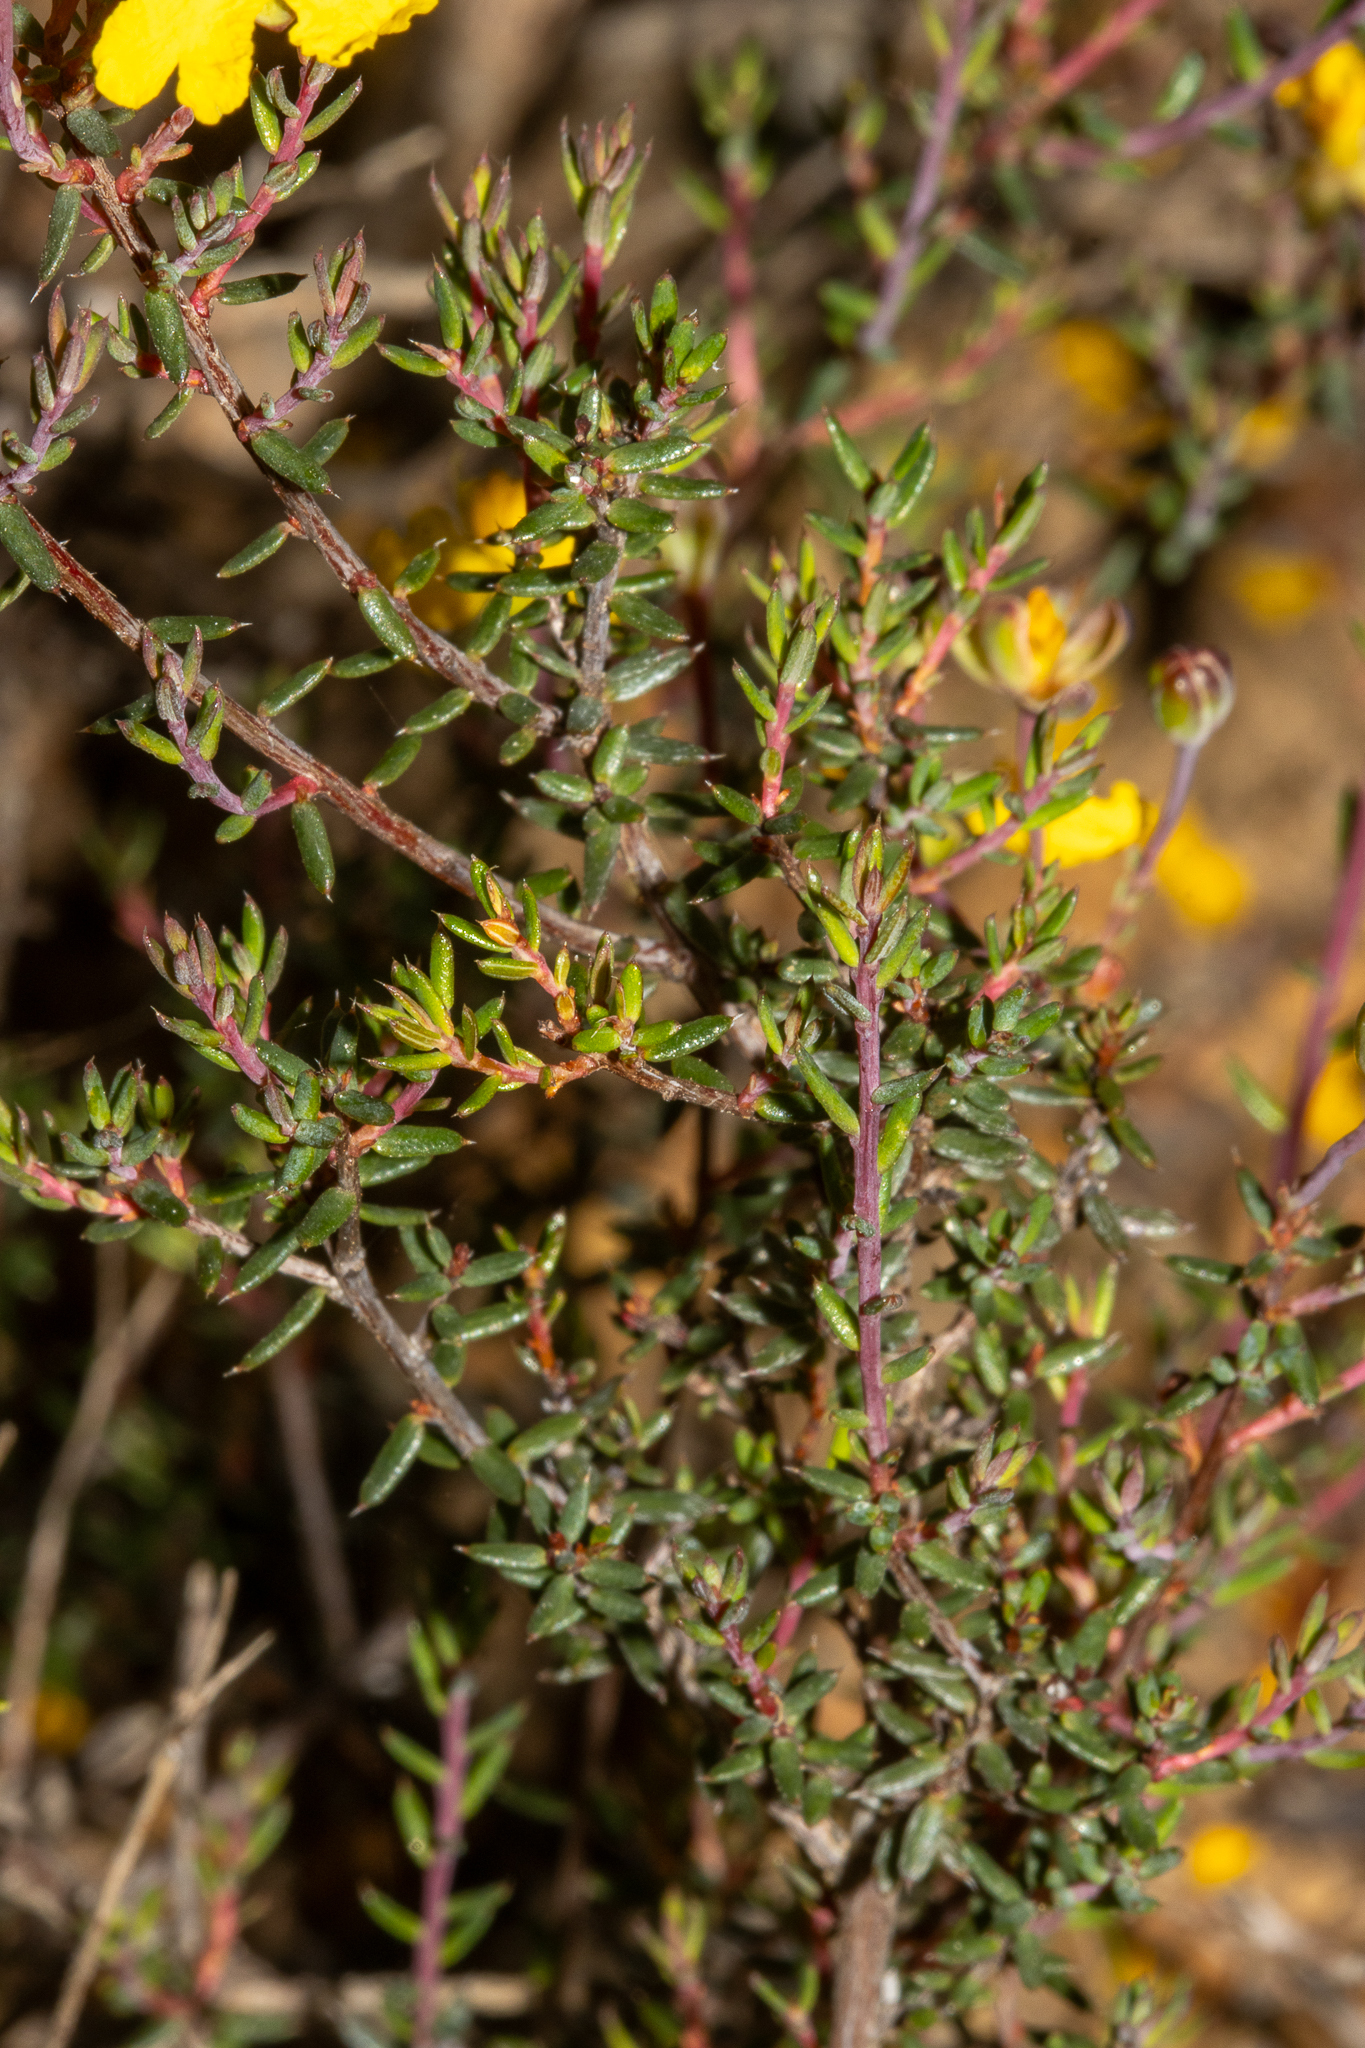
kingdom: Plantae
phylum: Tracheophyta
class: Magnoliopsida
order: Dilleniales
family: Dilleniaceae
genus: Hibbertia
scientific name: Hibbertia obtusibracteata
